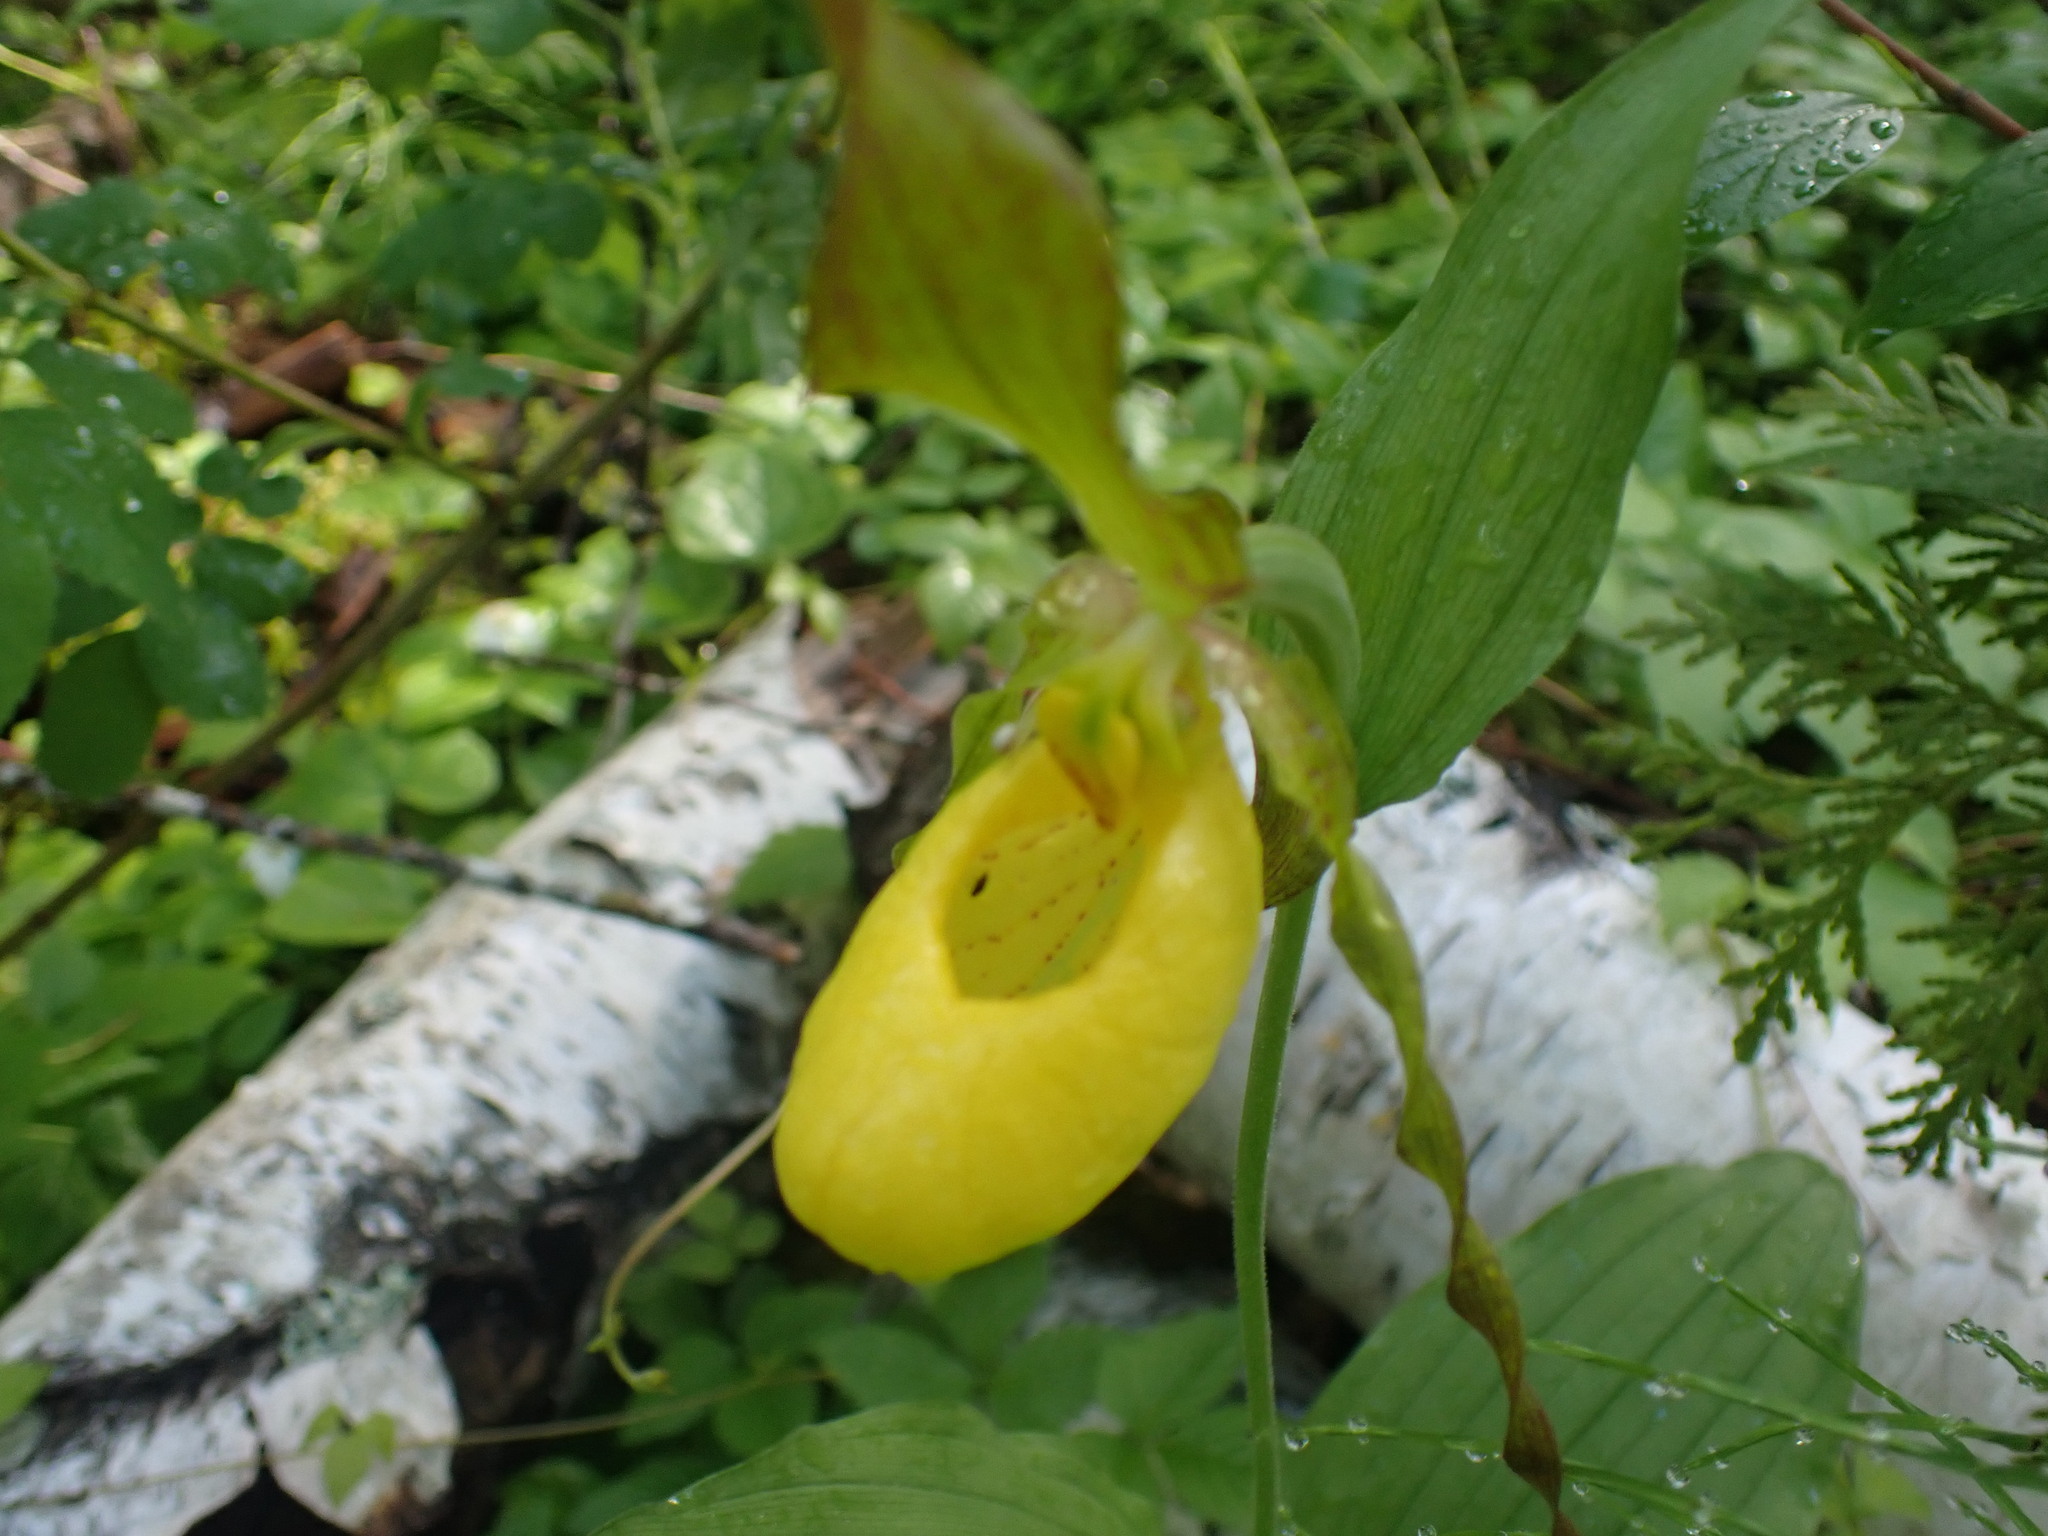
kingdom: Plantae
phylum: Tracheophyta
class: Liliopsida
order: Asparagales
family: Orchidaceae
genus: Cypripedium
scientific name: Cypripedium parviflorum
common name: American yellow lady's-slipper
